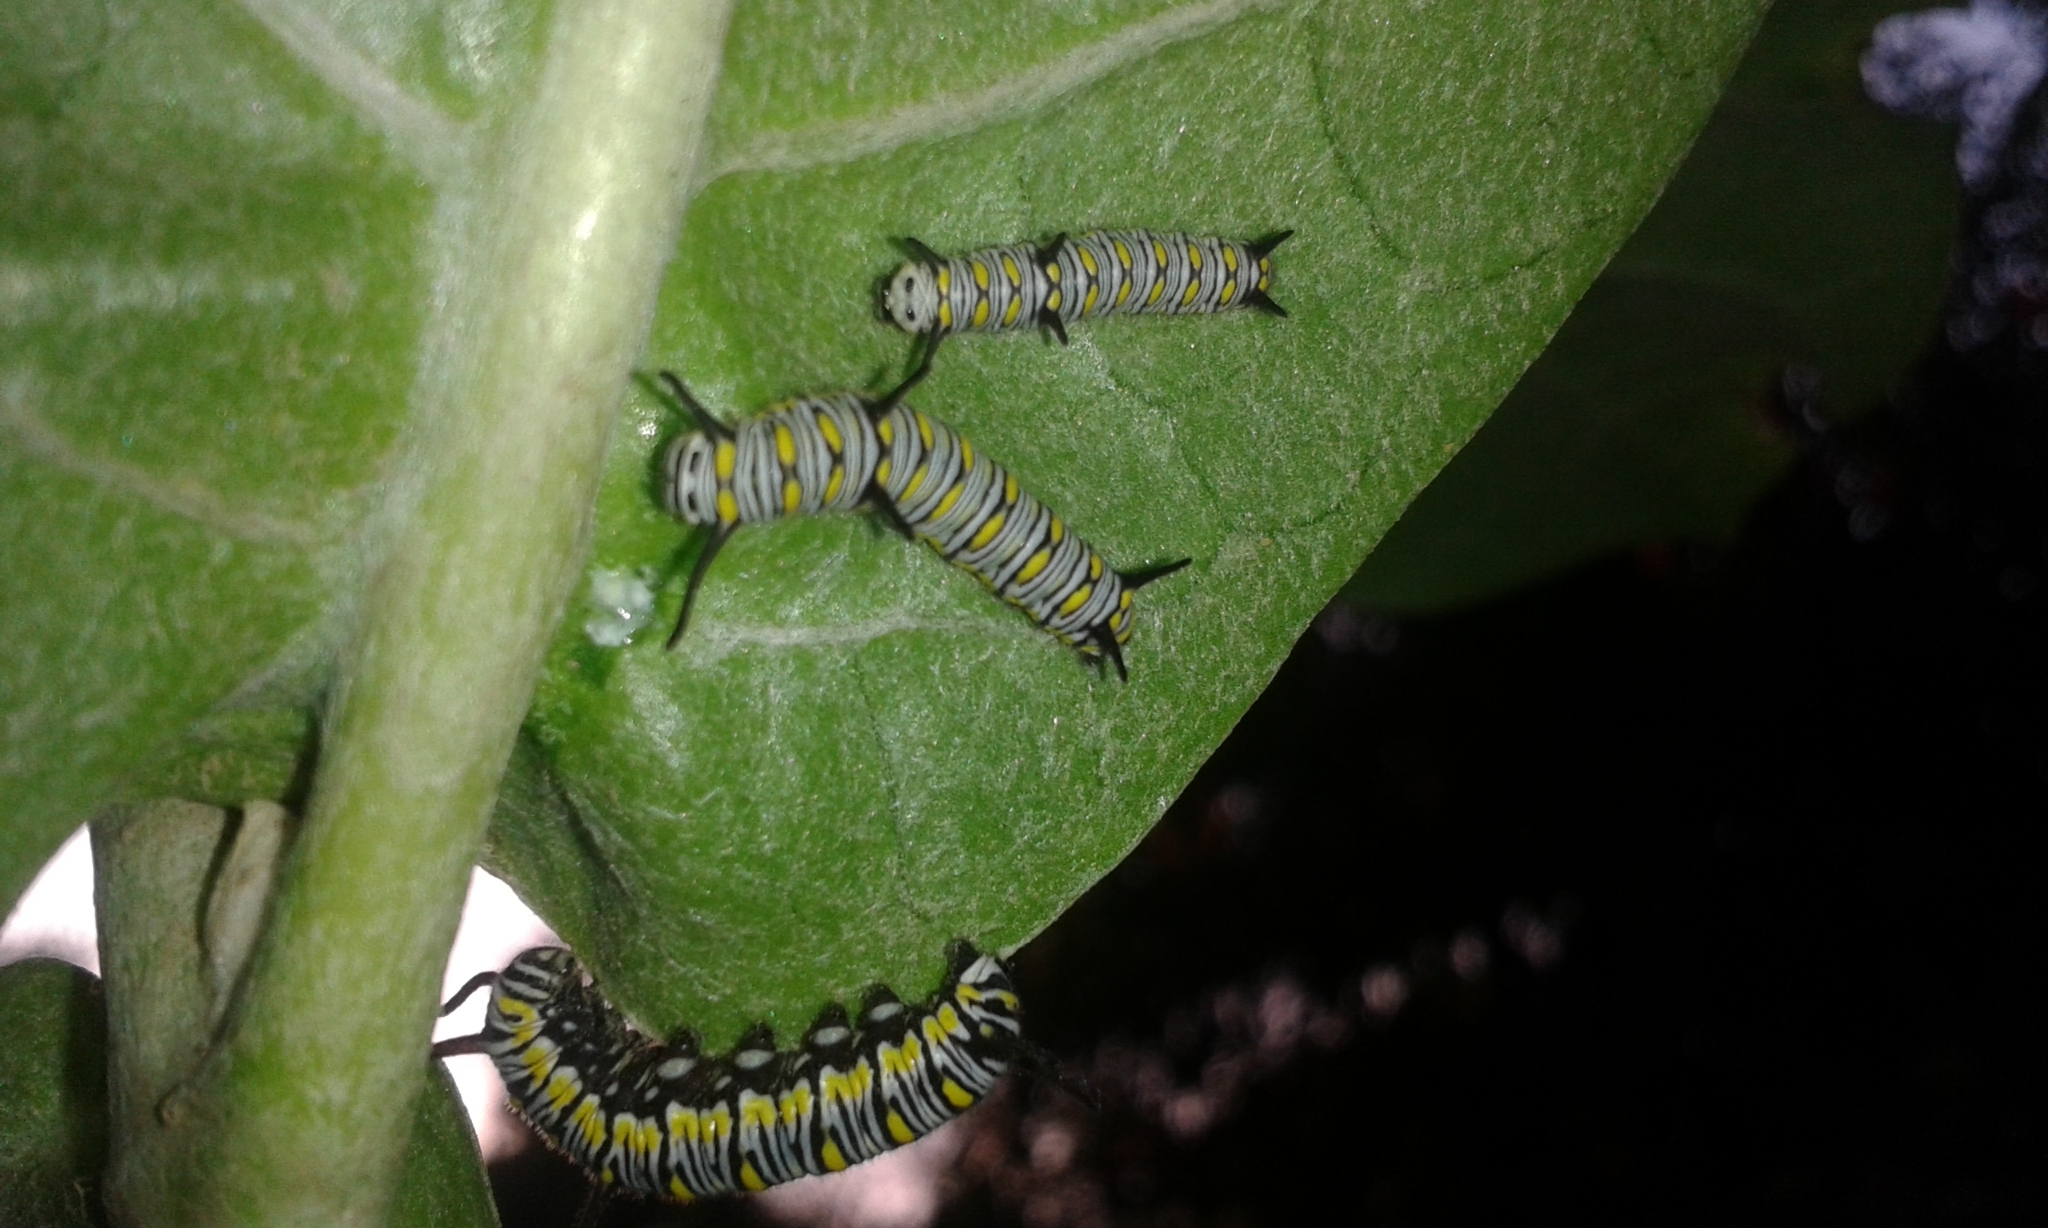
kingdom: Animalia
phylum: Arthropoda
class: Insecta
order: Lepidoptera
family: Nymphalidae
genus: Danaus
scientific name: Danaus chrysippus
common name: Plain tiger
